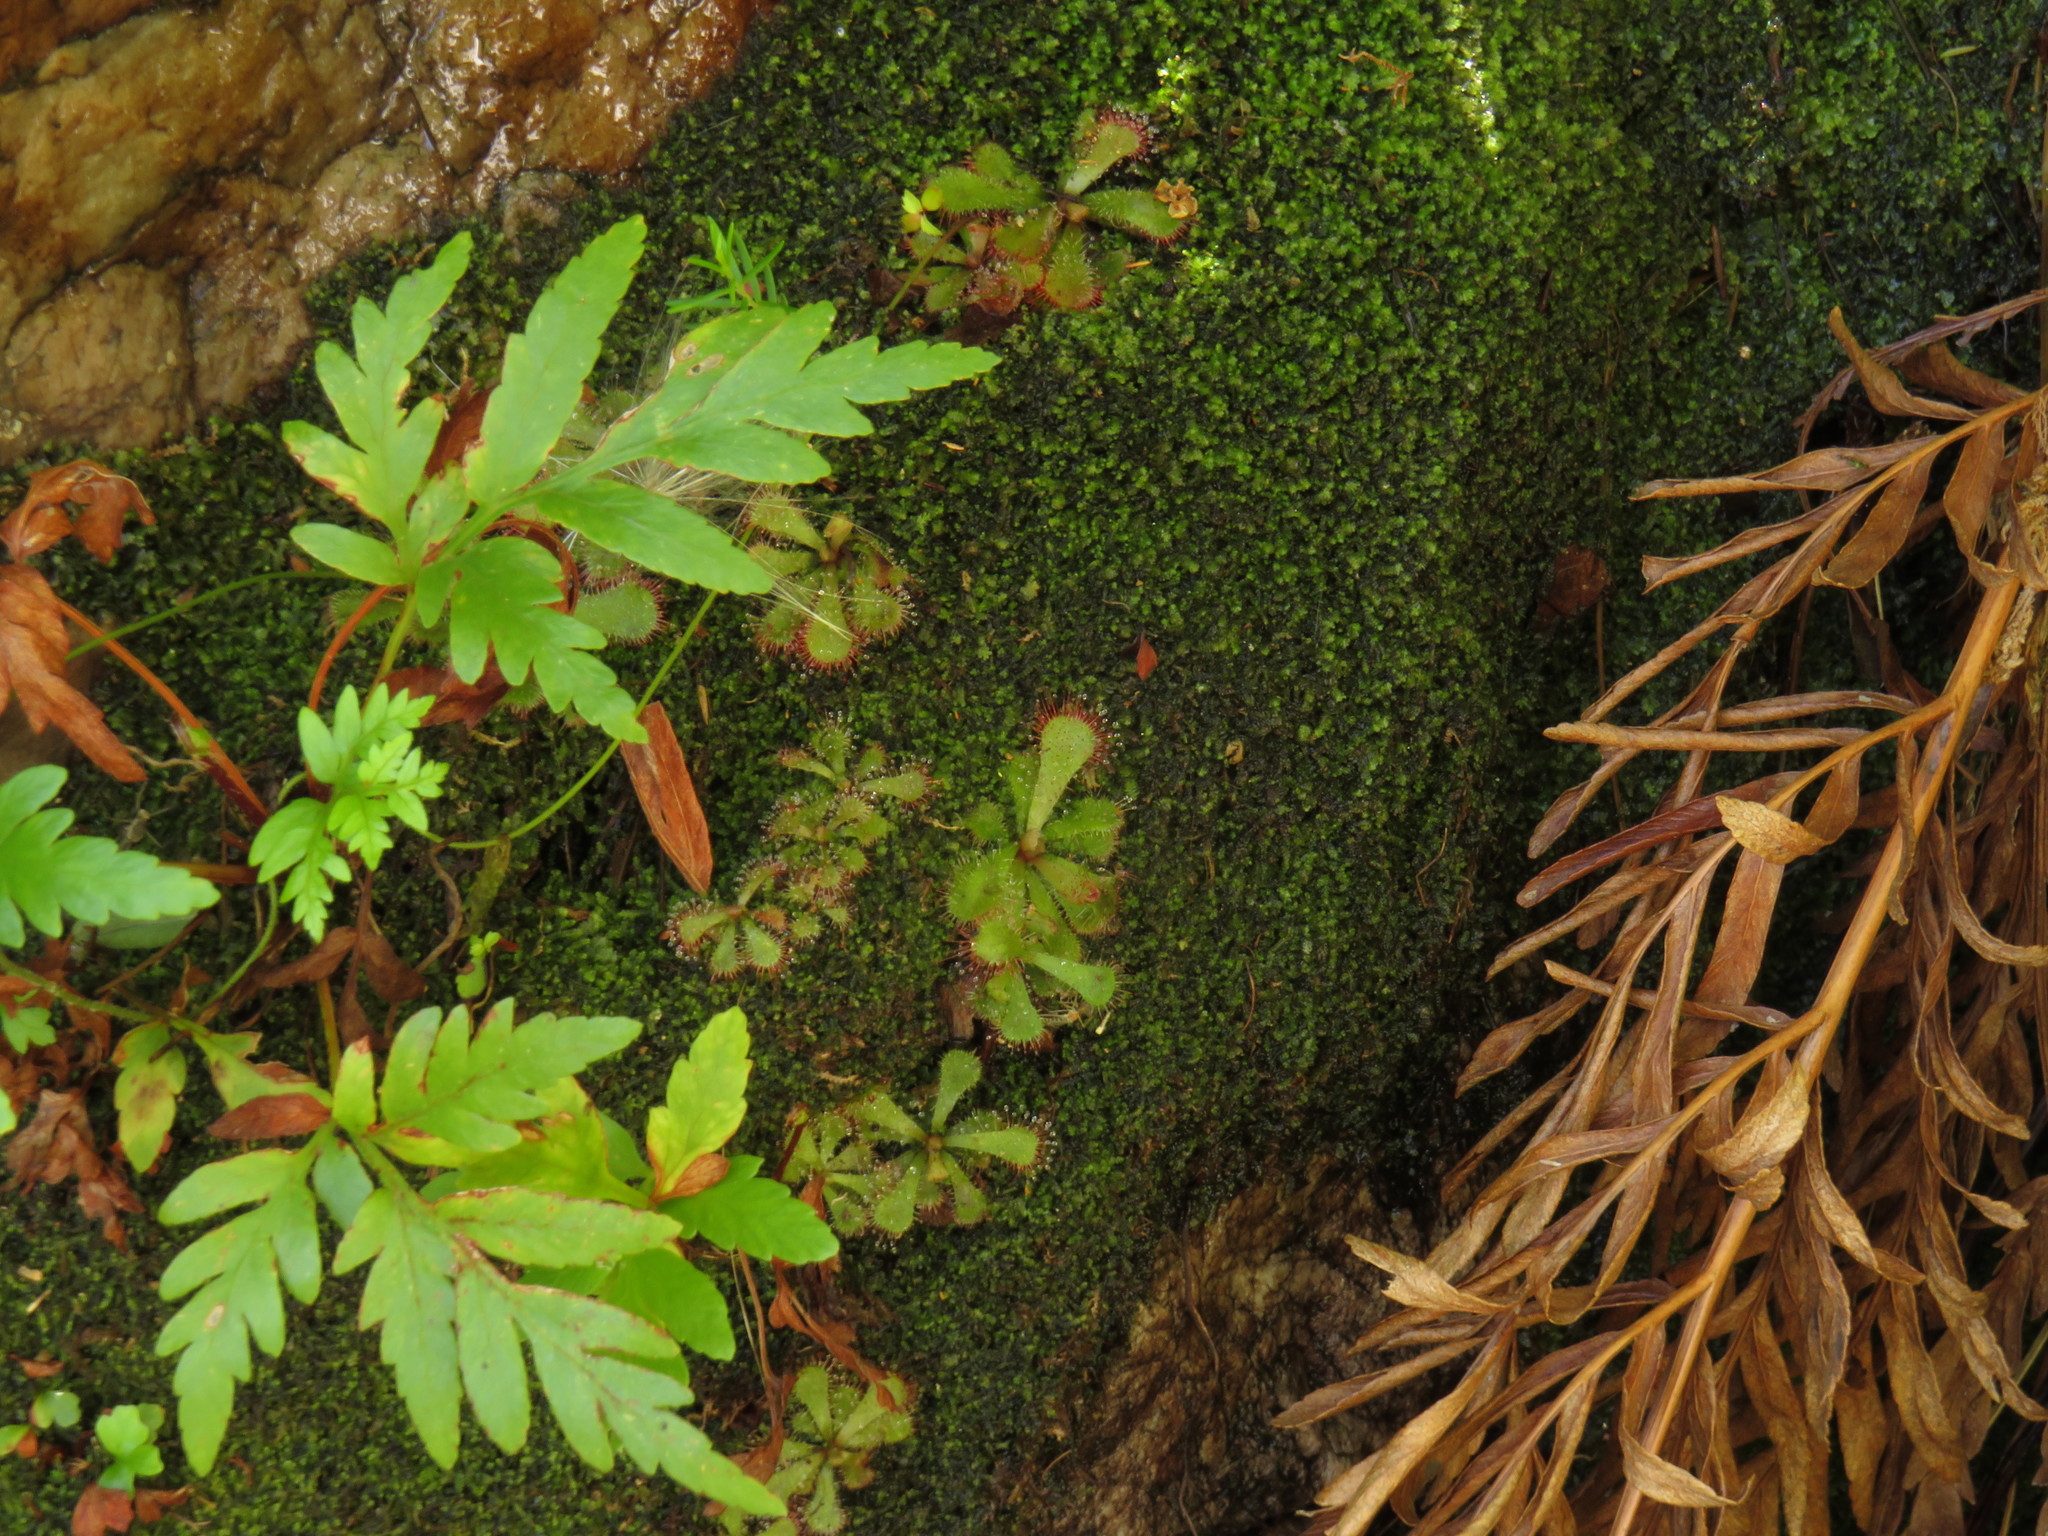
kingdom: Plantae
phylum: Tracheophyta
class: Magnoliopsida
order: Caryophyllales
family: Droseraceae
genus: Drosera
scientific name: Drosera aliciae
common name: Alice sundew
